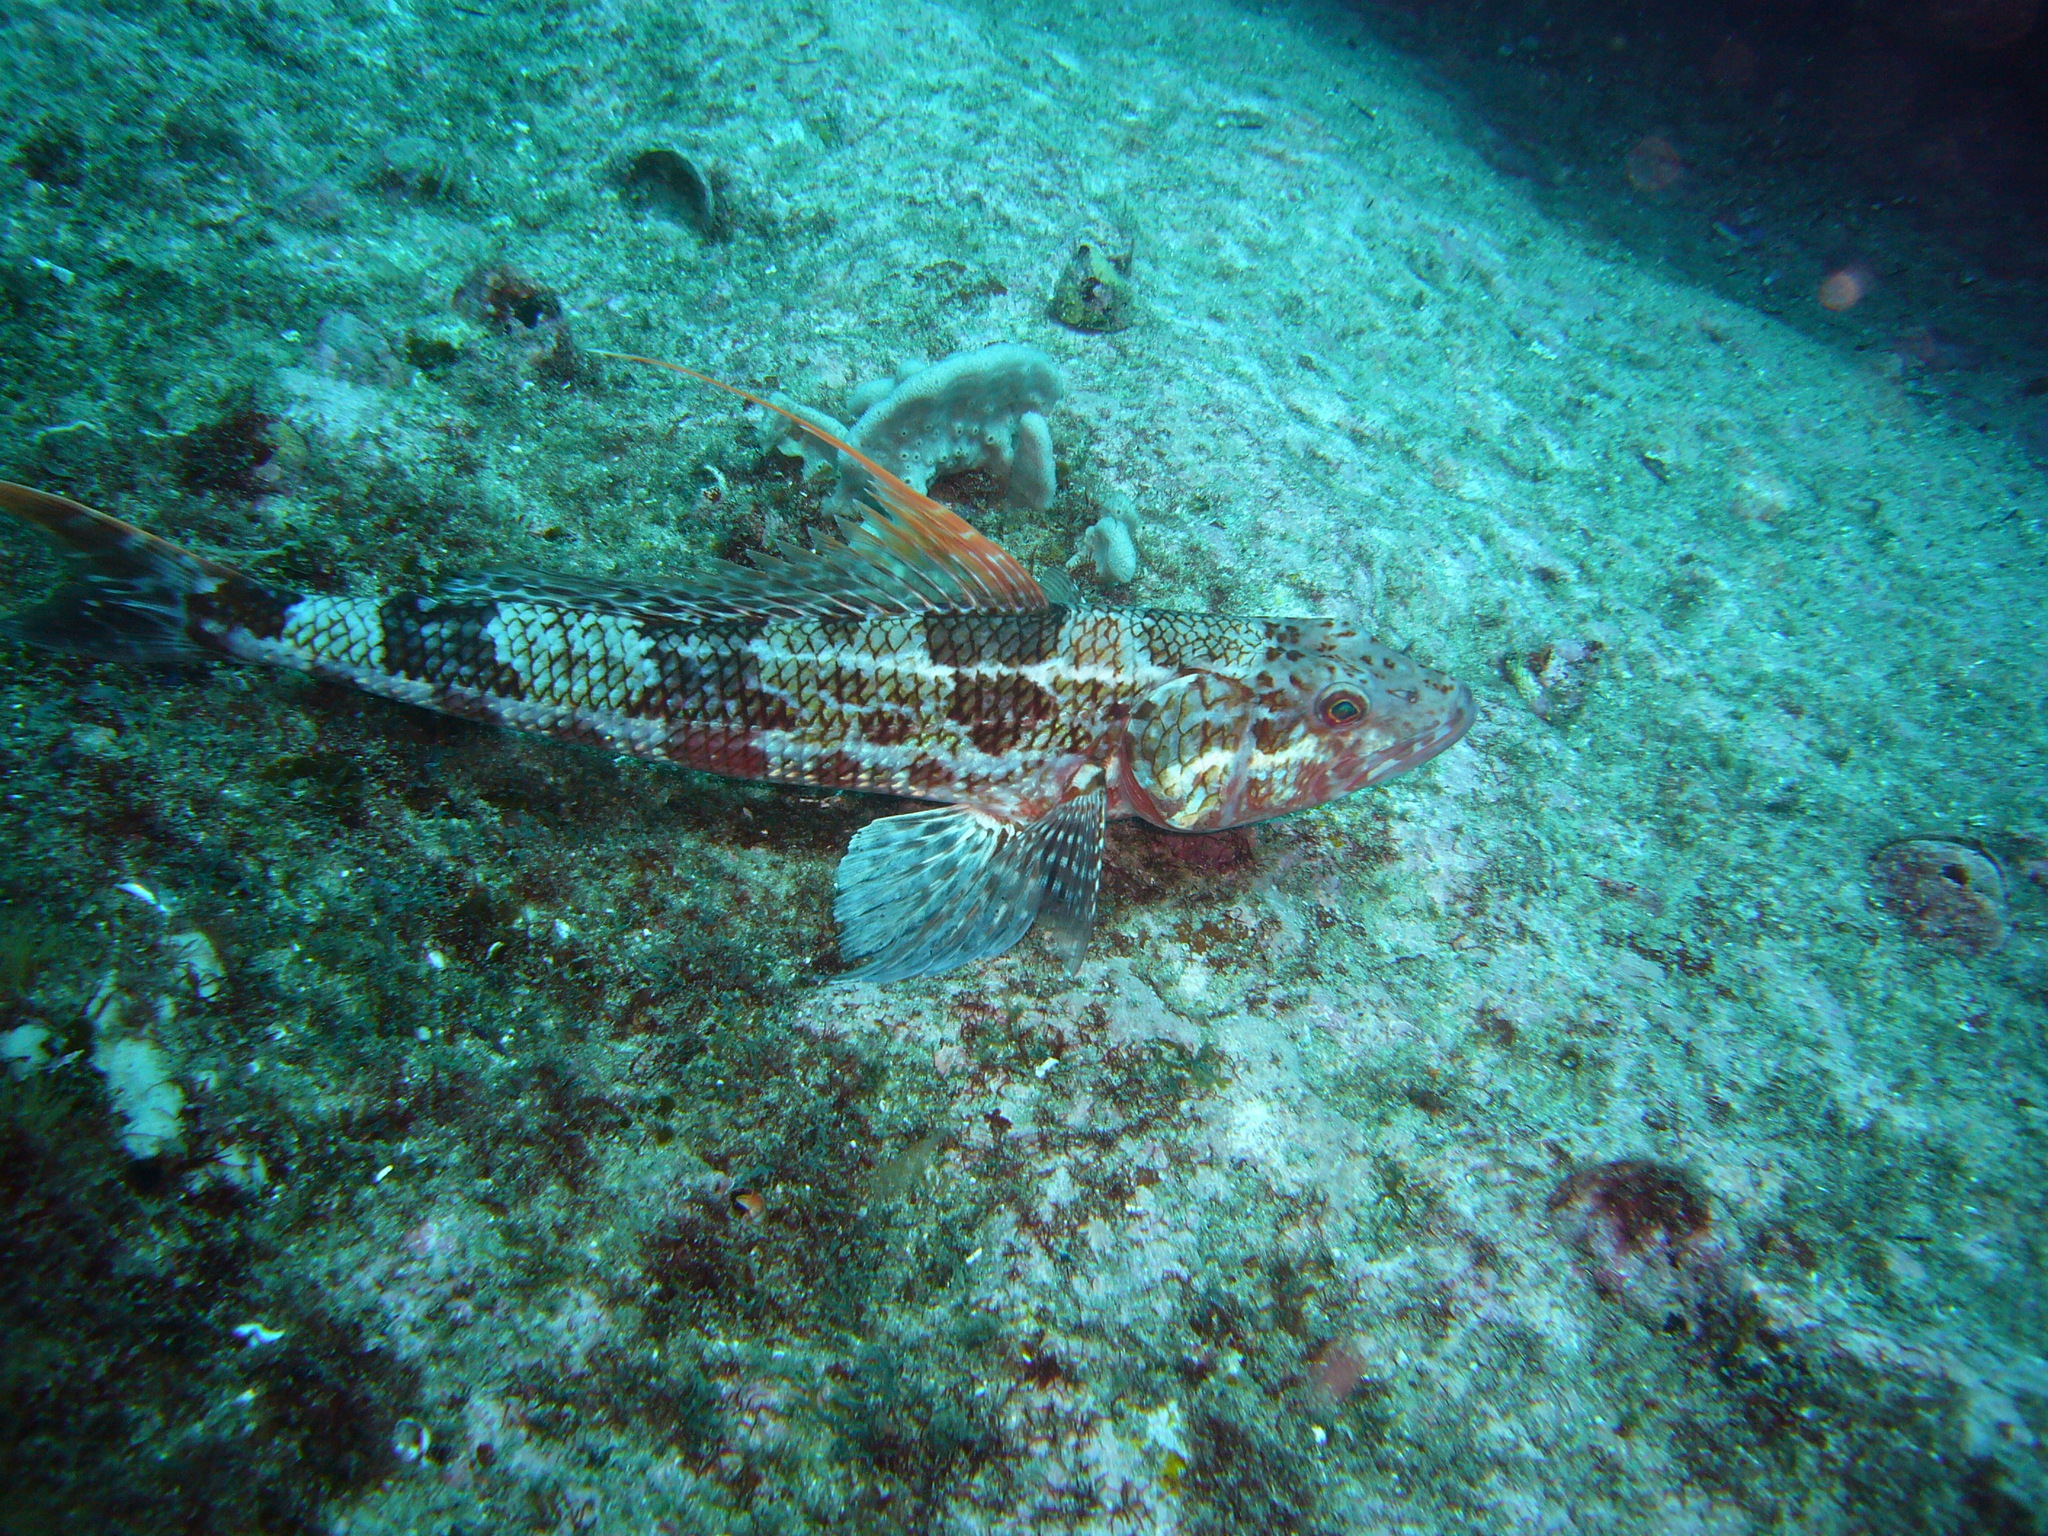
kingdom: Animalia
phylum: Chordata
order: Aulopiformes
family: Aulopidae
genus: Latropiscis
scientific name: Latropiscis purpurissatus
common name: Sergeant baker
